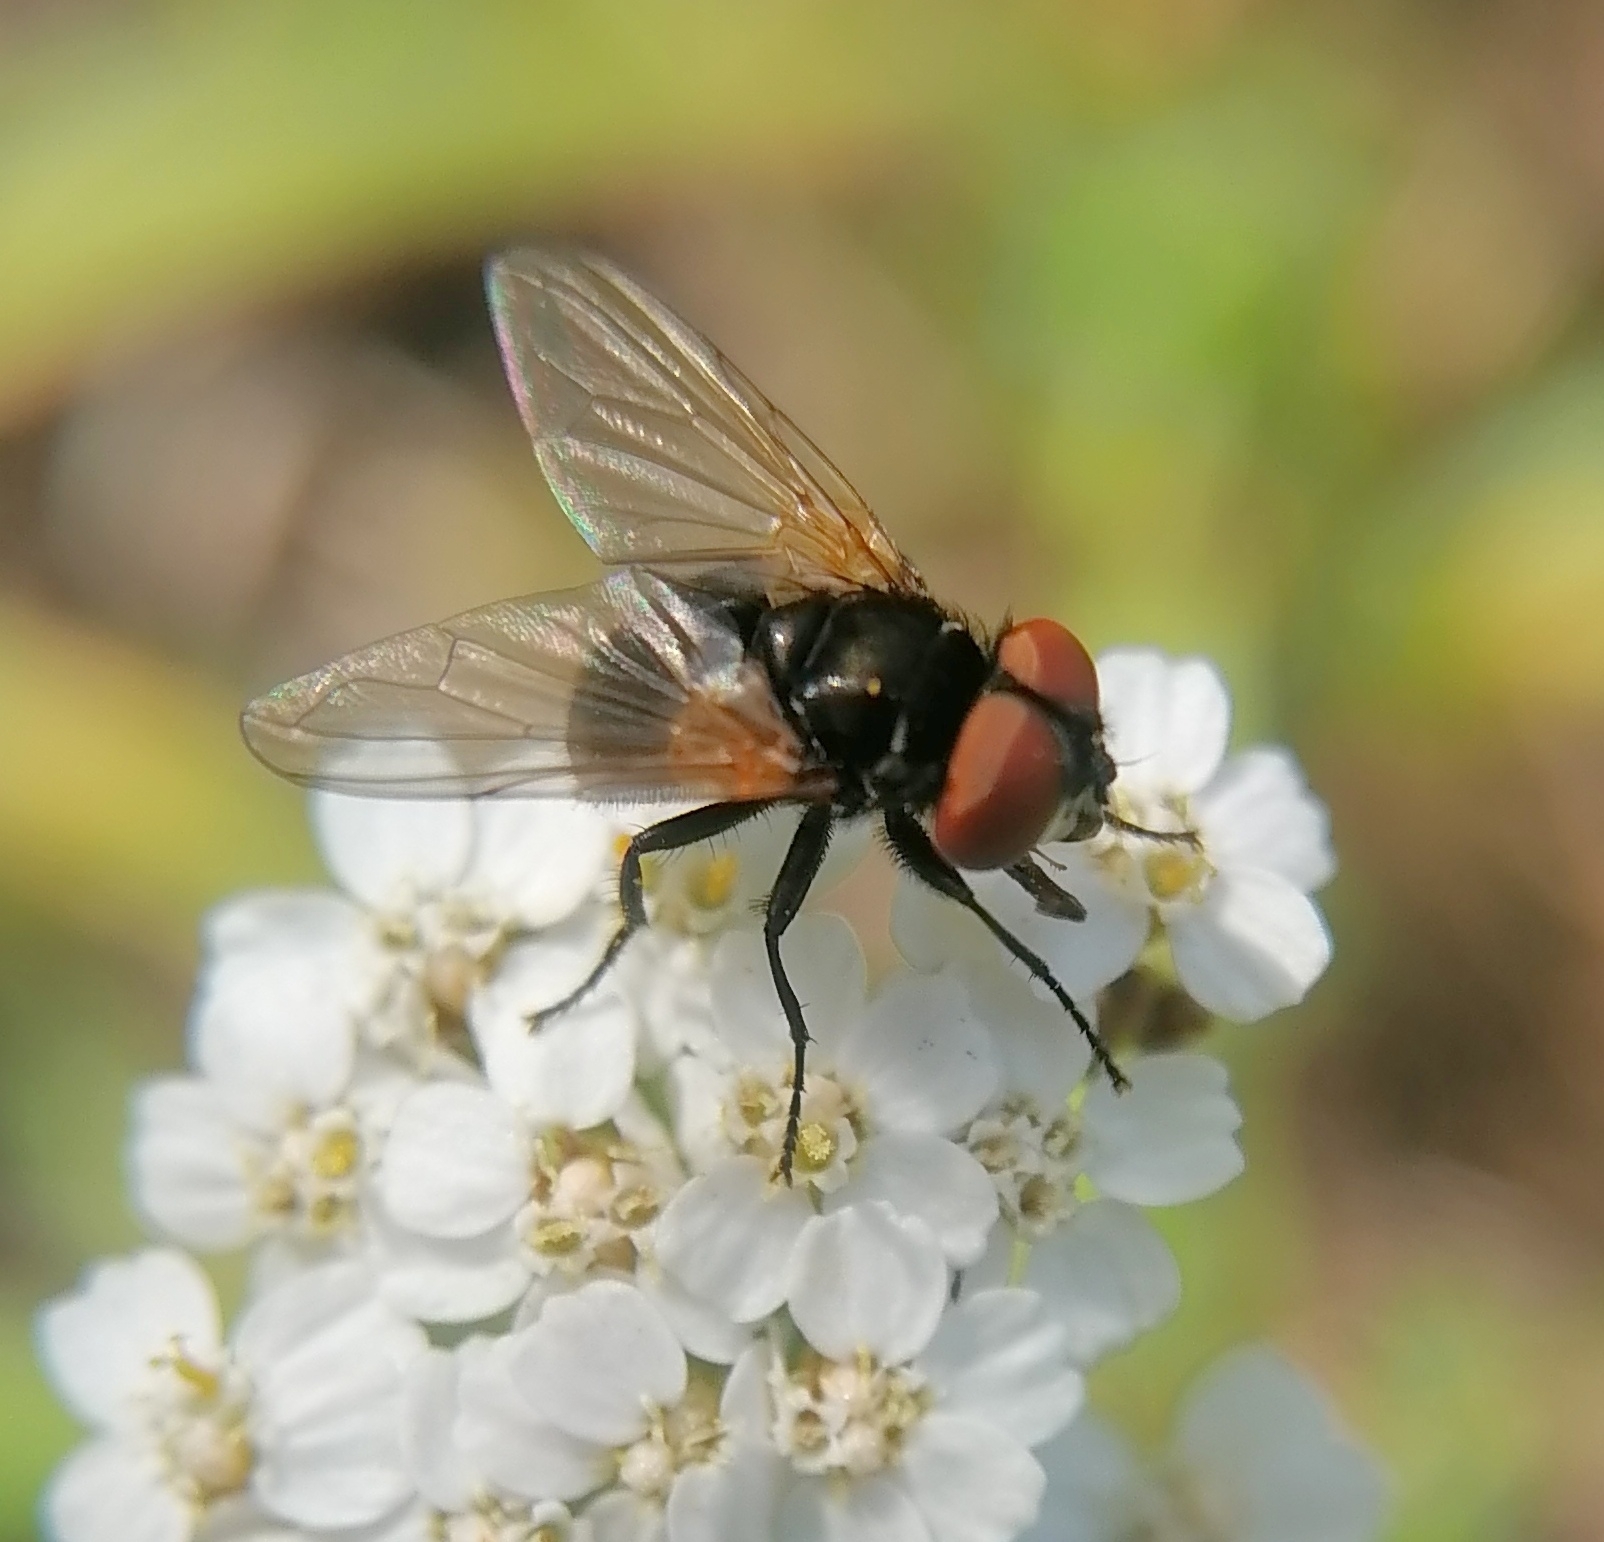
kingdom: Animalia
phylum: Arthropoda
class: Insecta
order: Diptera
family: Tachinidae
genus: Phasia
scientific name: Phasia obesa
